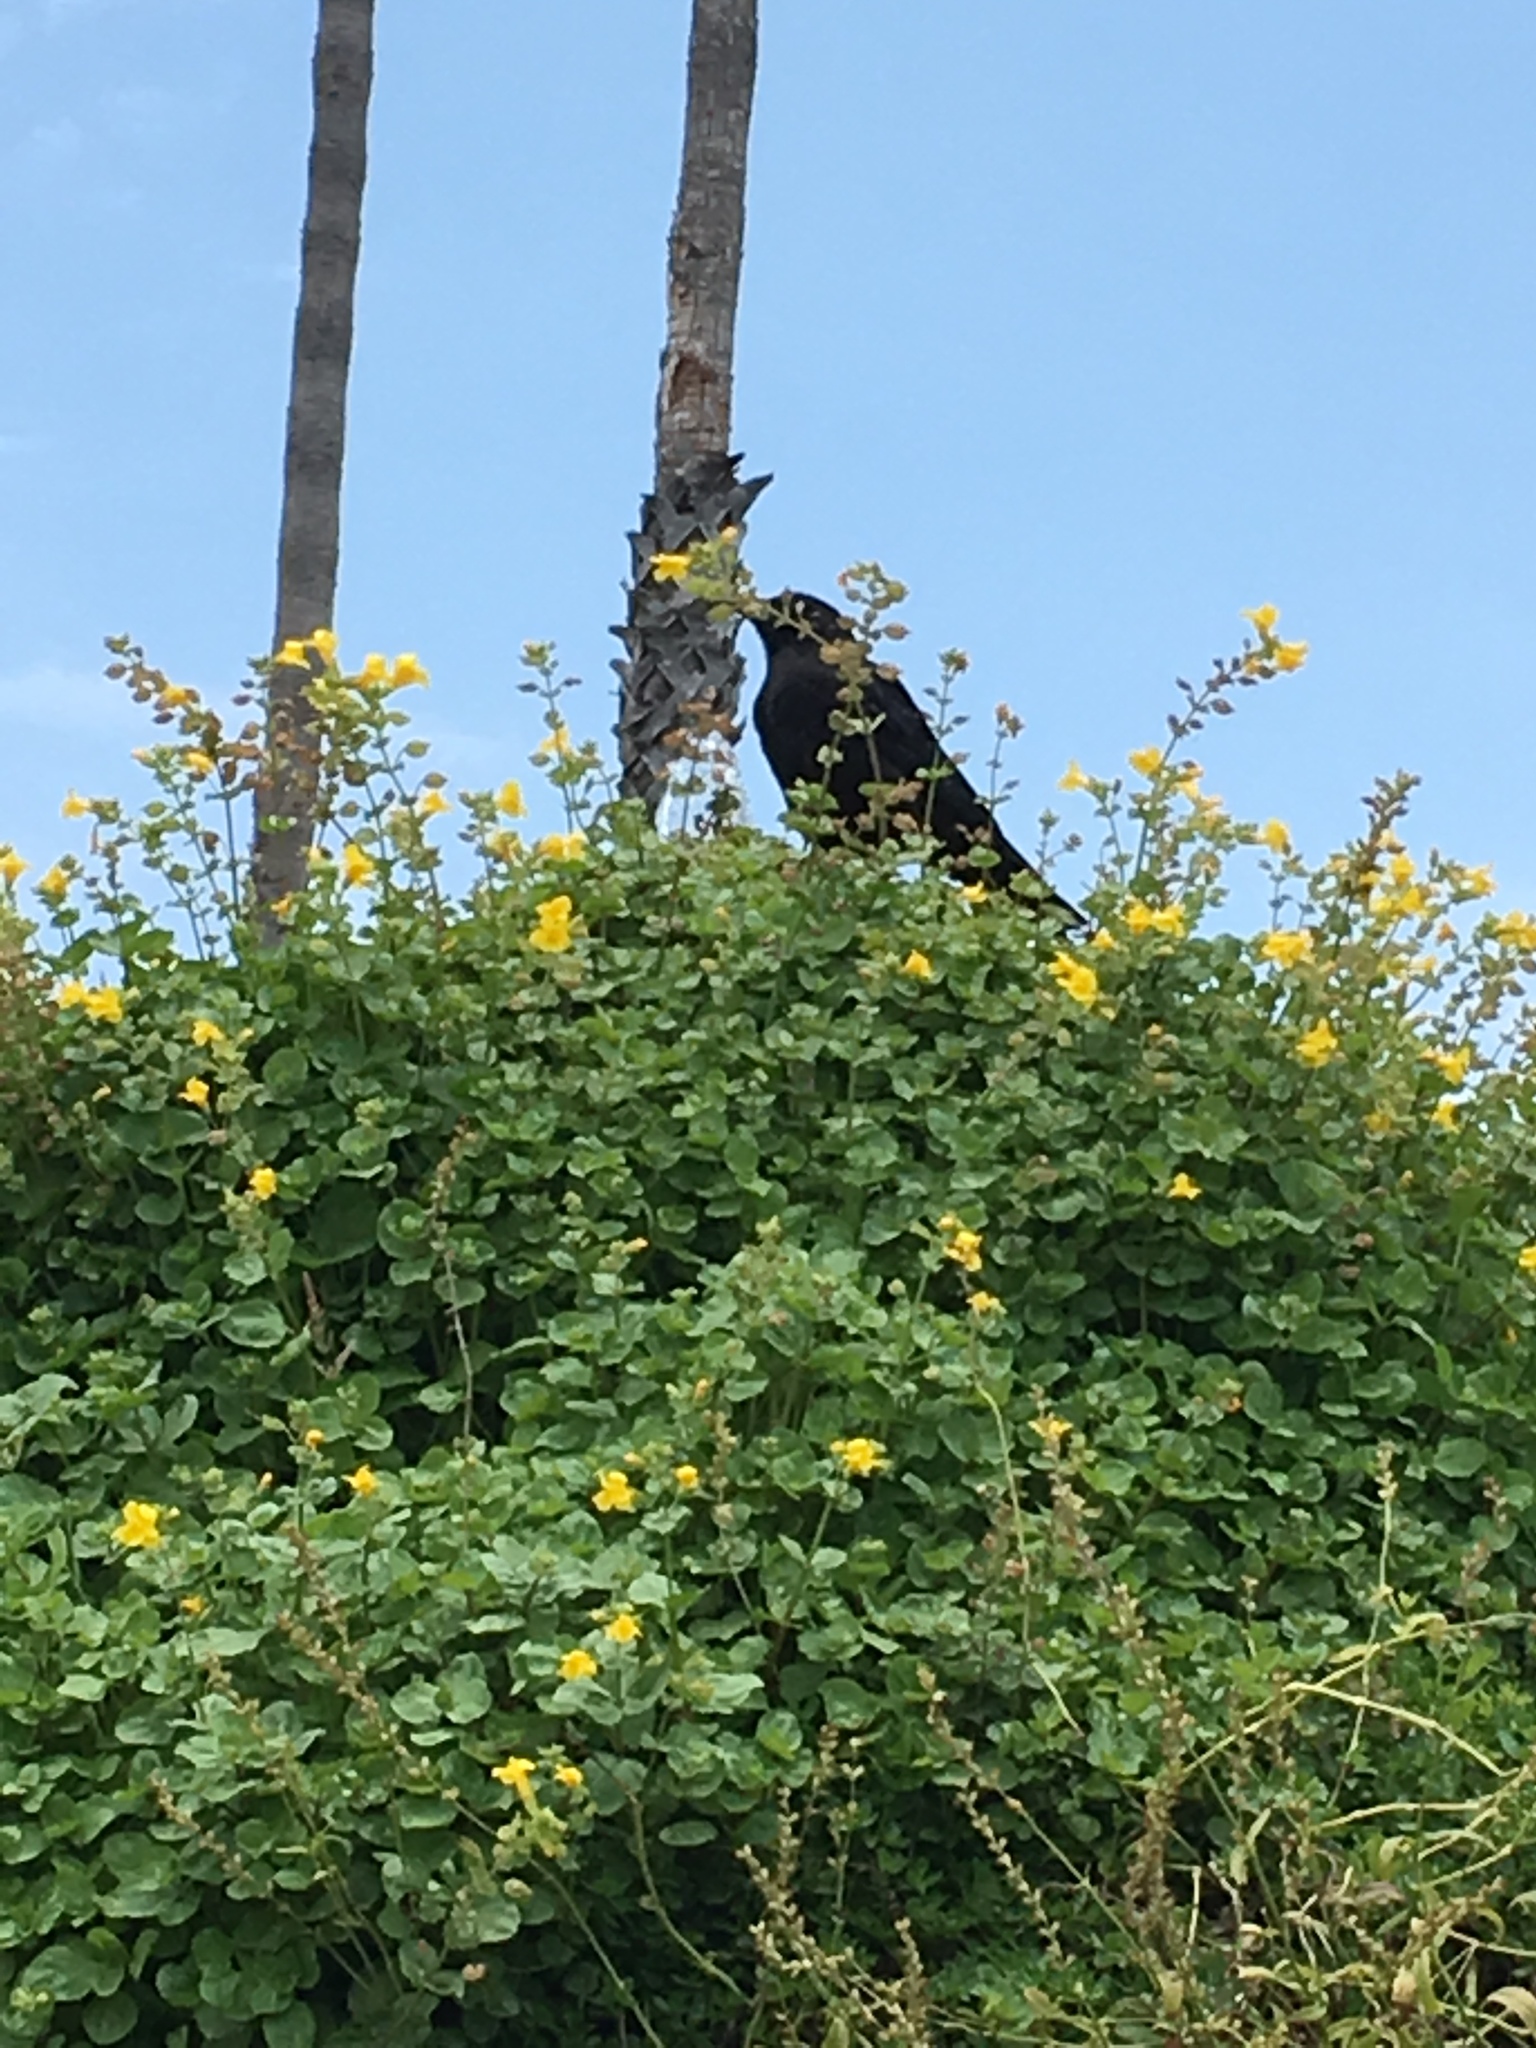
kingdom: Animalia
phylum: Chordata
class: Aves
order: Passeriformes
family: Corvidae
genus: Corvus
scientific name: Corvus brachyrhynchos
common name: American crow
